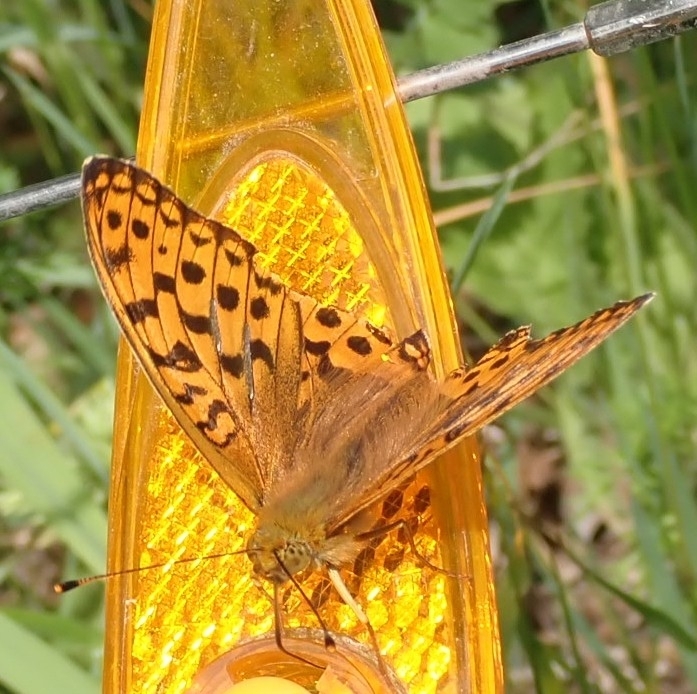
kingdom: Animalia
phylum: Arthropoda
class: Insecta
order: Lepidoptera
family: Nymphalidae
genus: Fabriciana
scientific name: Fabriciana adippe
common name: High brown fritillary
